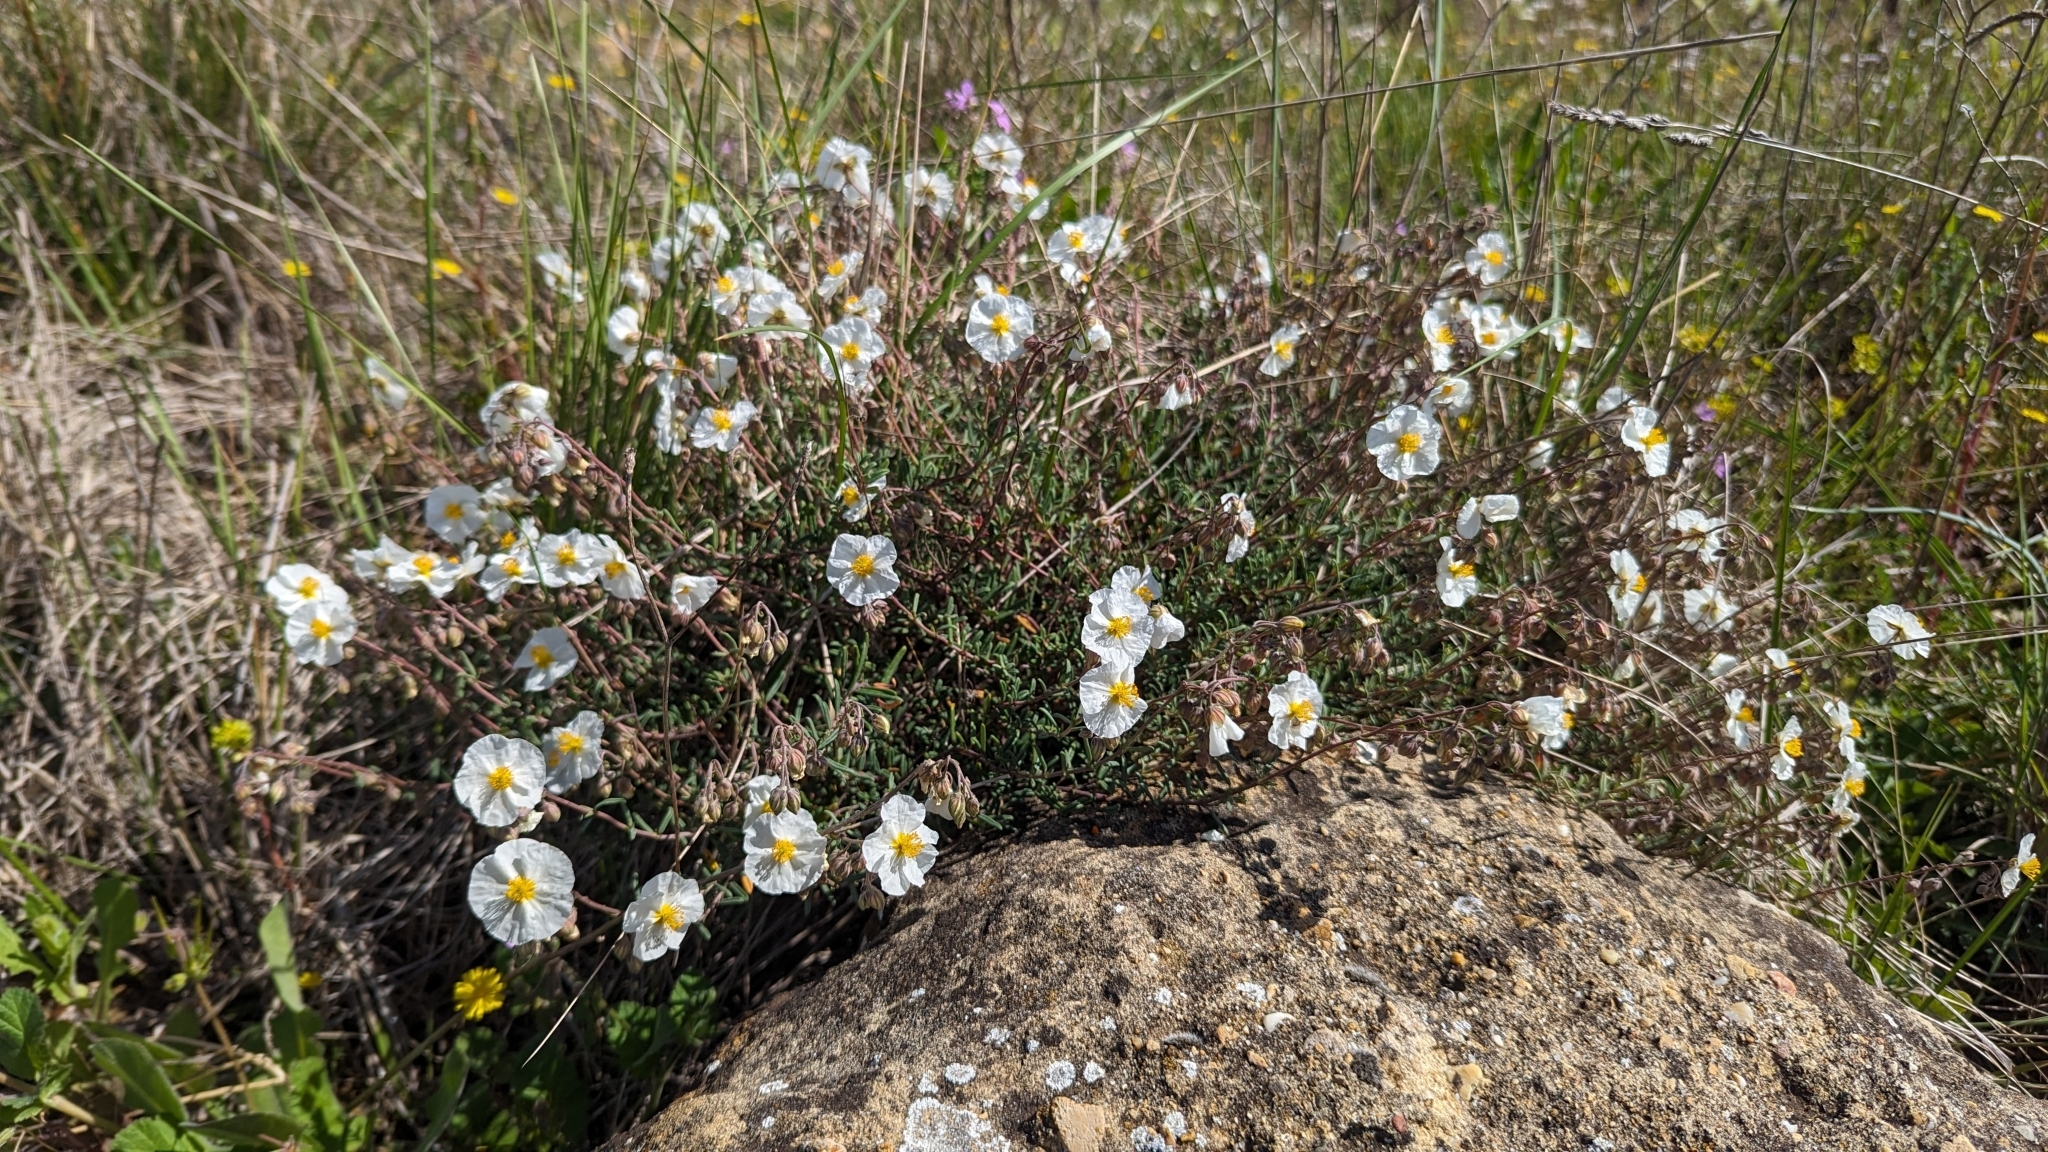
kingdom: Plantae
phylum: Tracheophyta
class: Magnoliopsida
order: Malvales
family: Cistaceae
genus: Helianthemum
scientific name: Helianthemum apenninum
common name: White rock-rose
